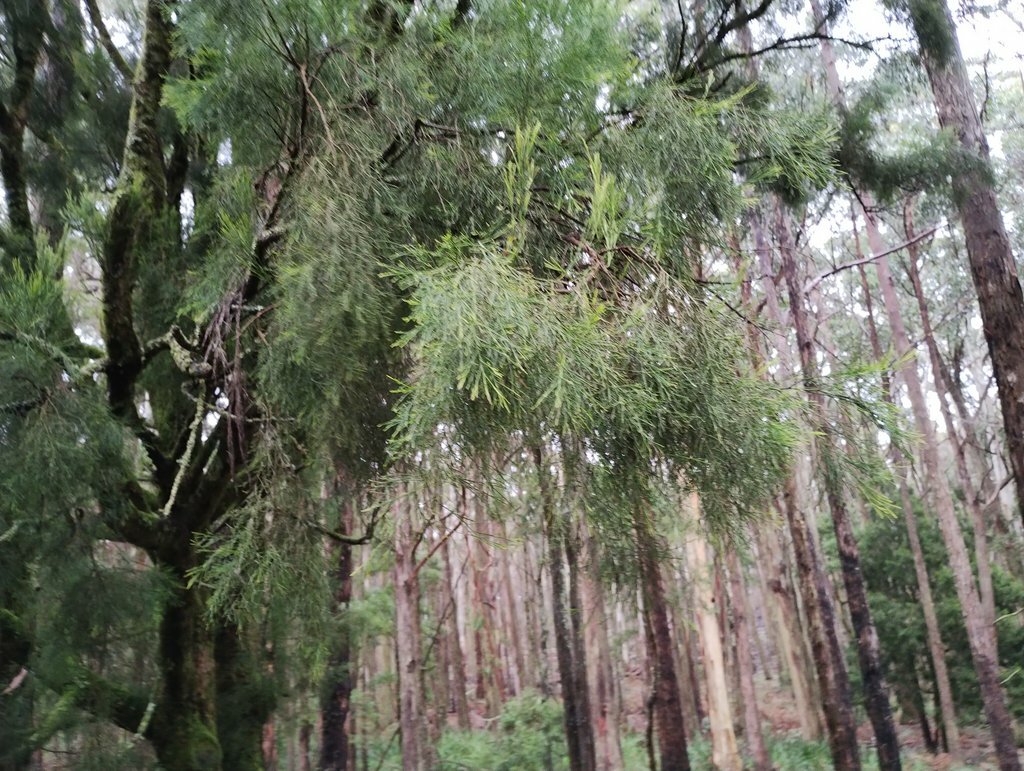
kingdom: Plantae
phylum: Tracheophyta
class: Magnoliopsida
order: Santalales
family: Santalaceae
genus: Exocarpos
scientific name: Exocarpos cupressiformis
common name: Cherry ballart
